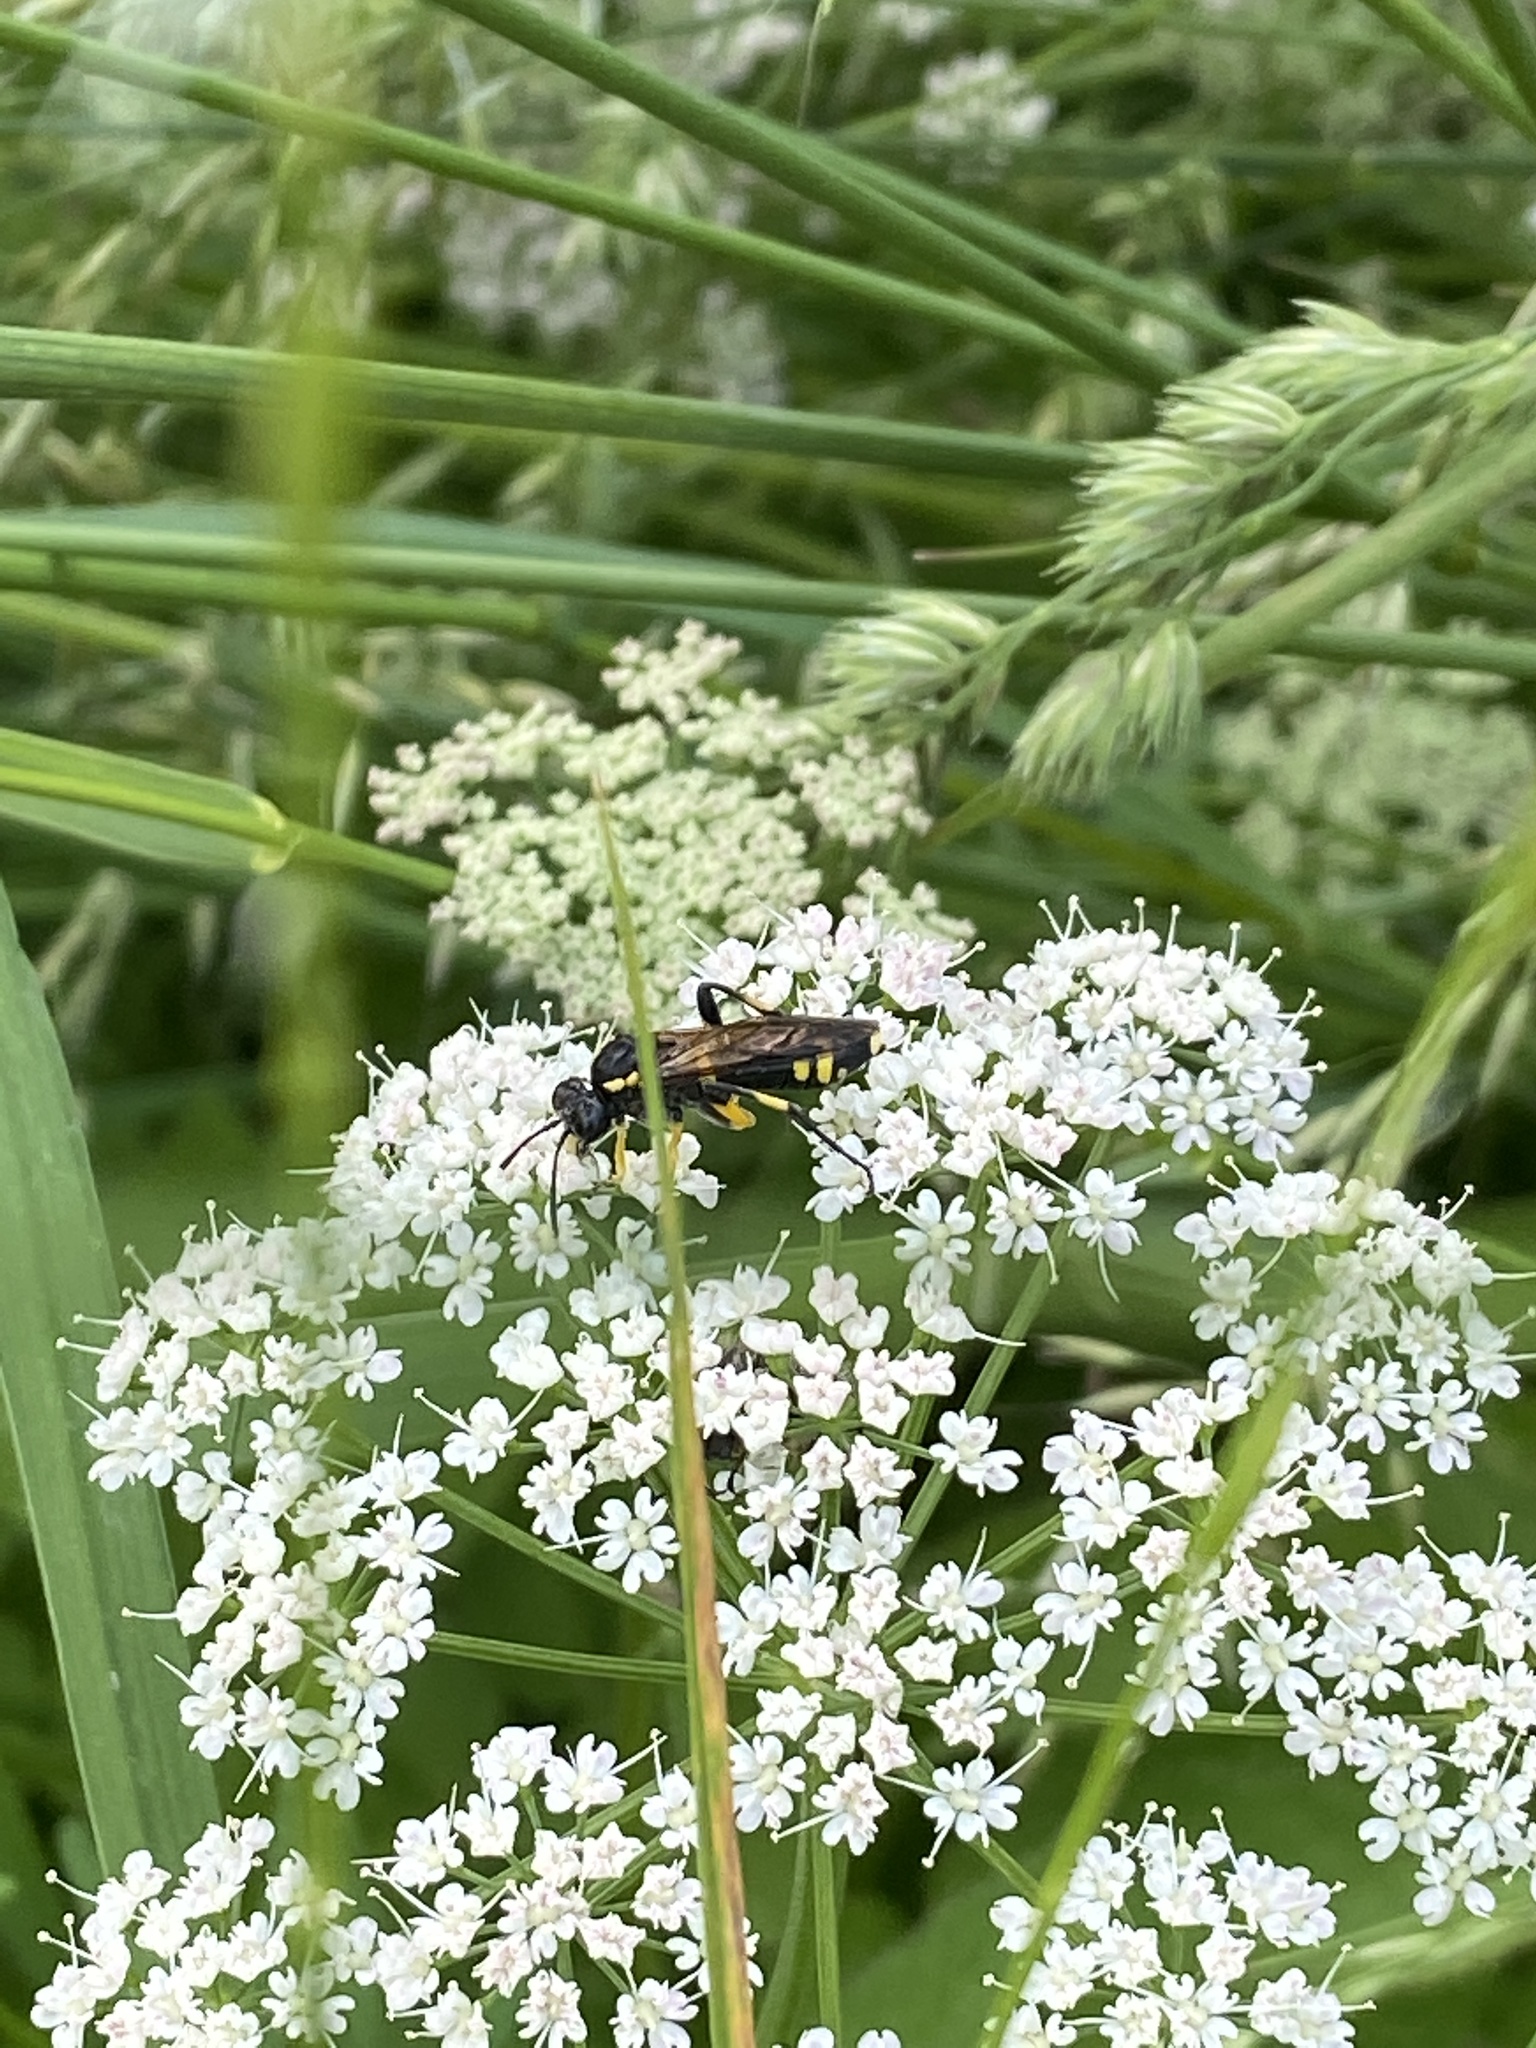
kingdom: Animalia
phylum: Arthropoda
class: Insecta
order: Hymenoptera
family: Tenthredinidae
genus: Macrophya
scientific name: Macrophya montana
